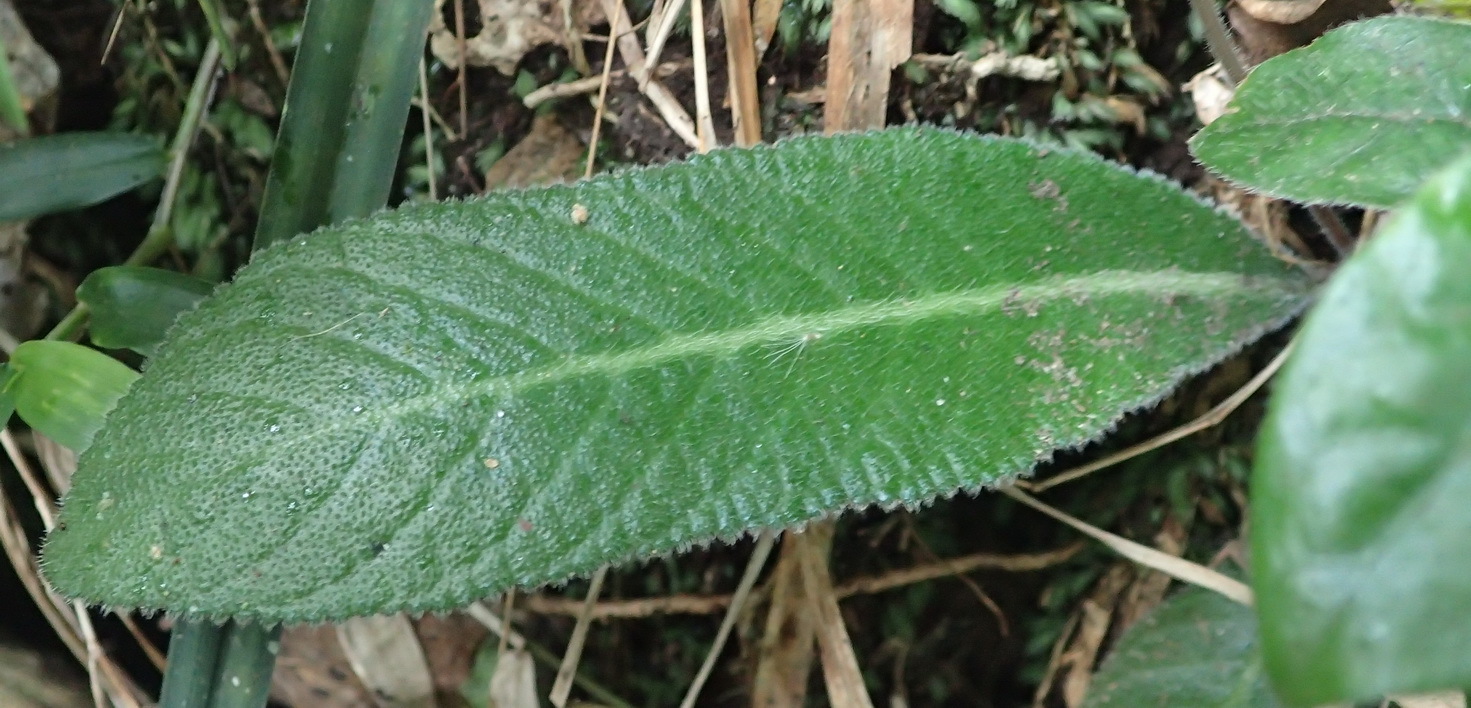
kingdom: Plantae
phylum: Tracheophyta
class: Magnoliopsida
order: Lamiales
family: Gesneriaceae
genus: Streptocarpus
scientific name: Streptocarpus rexii
